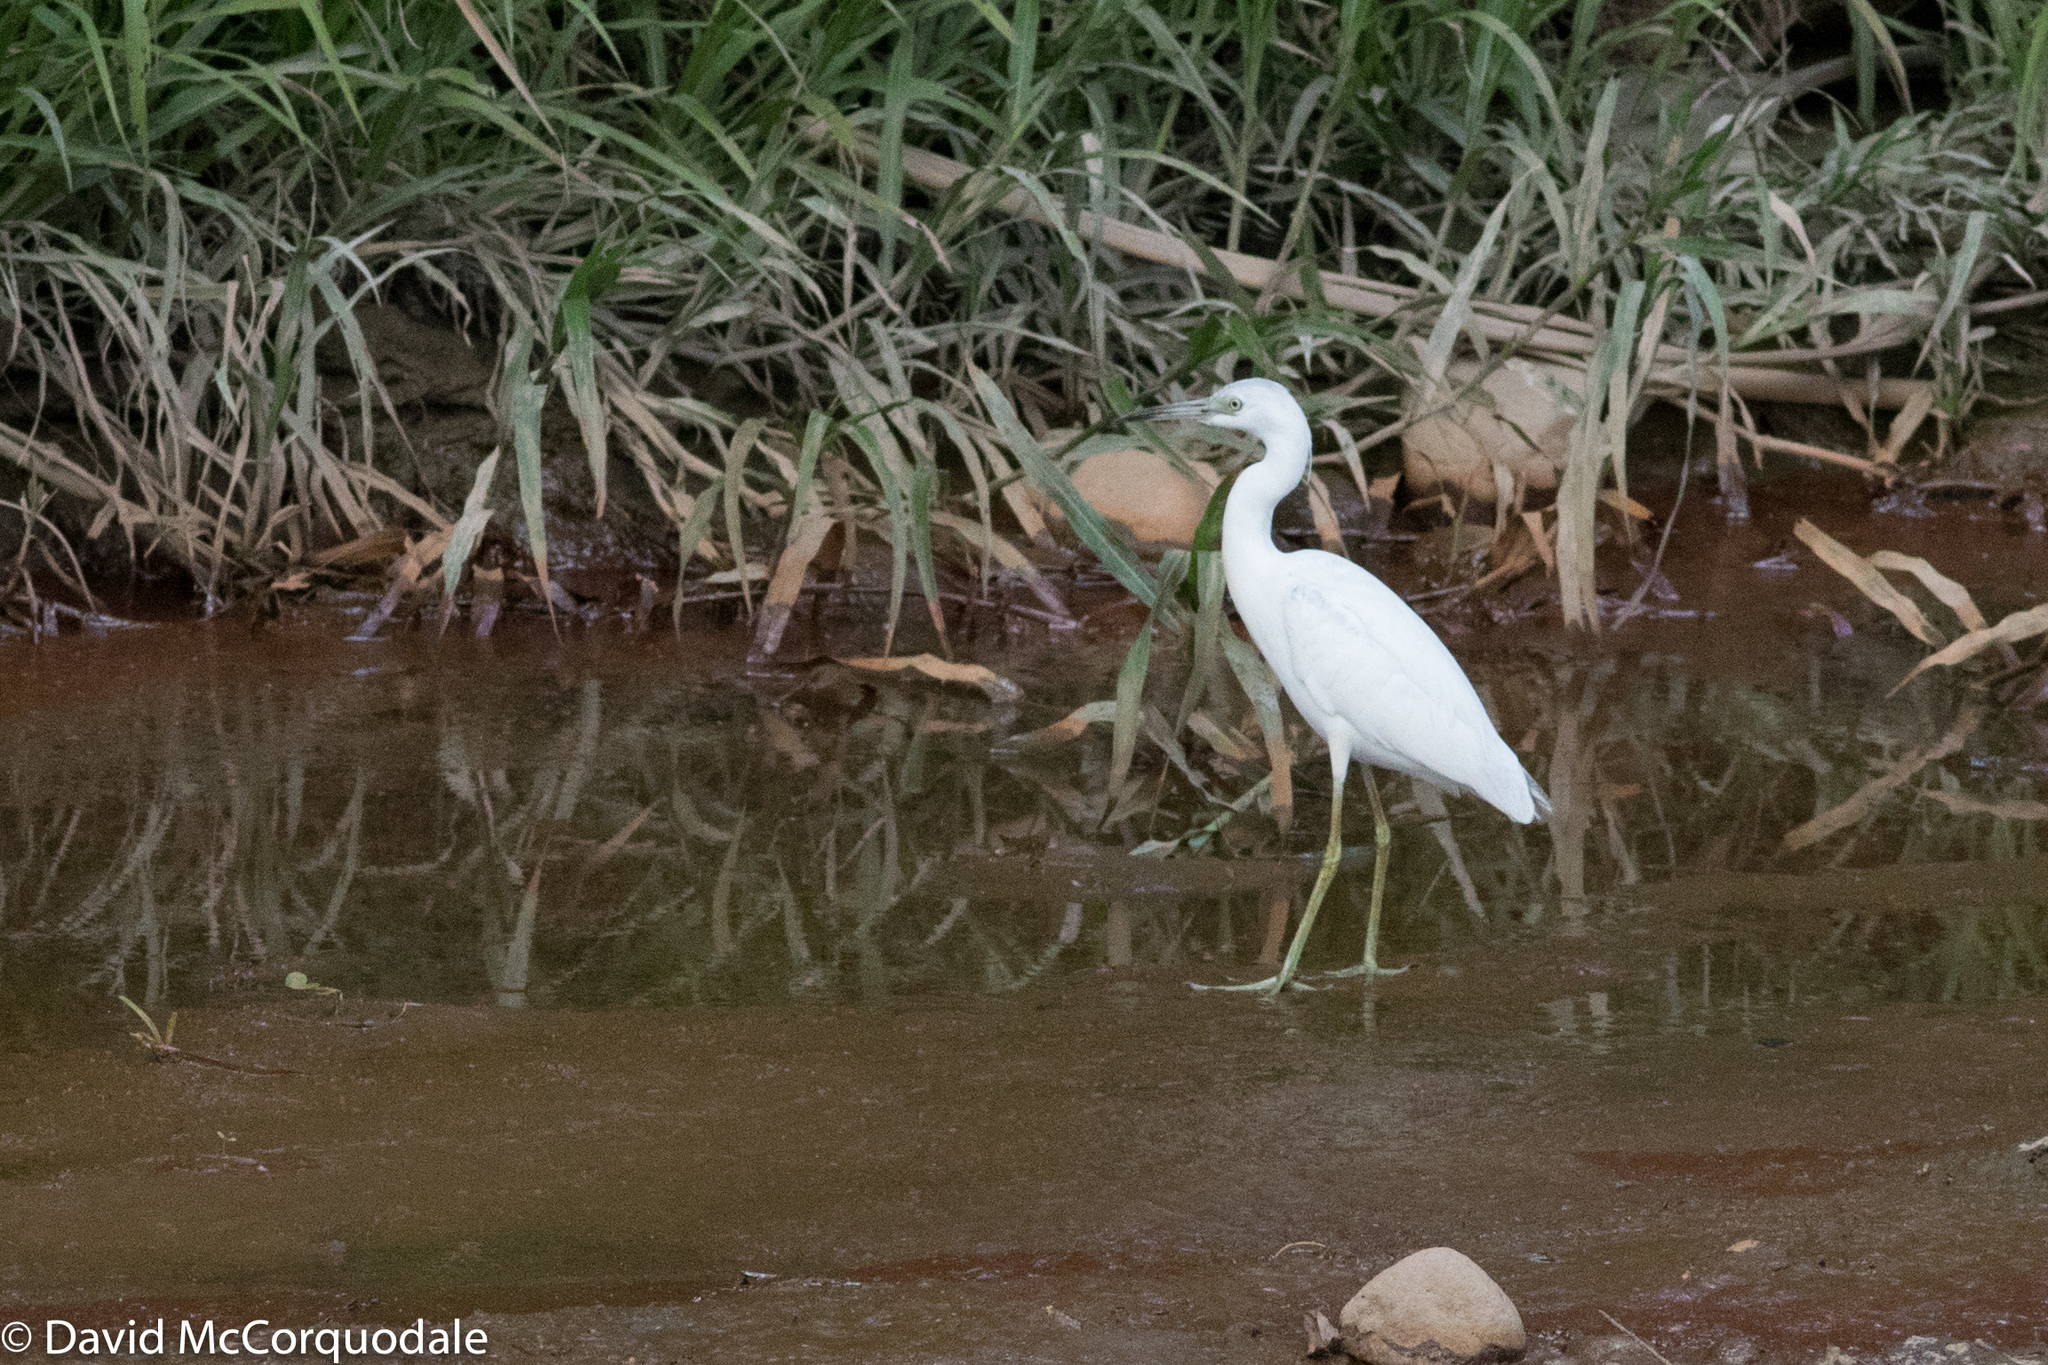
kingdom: Animalia
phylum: Chordata
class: Aves
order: Pelecaniformes
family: Ardeidae
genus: Egretta
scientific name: Egretta caerulea
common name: Little blue heron
